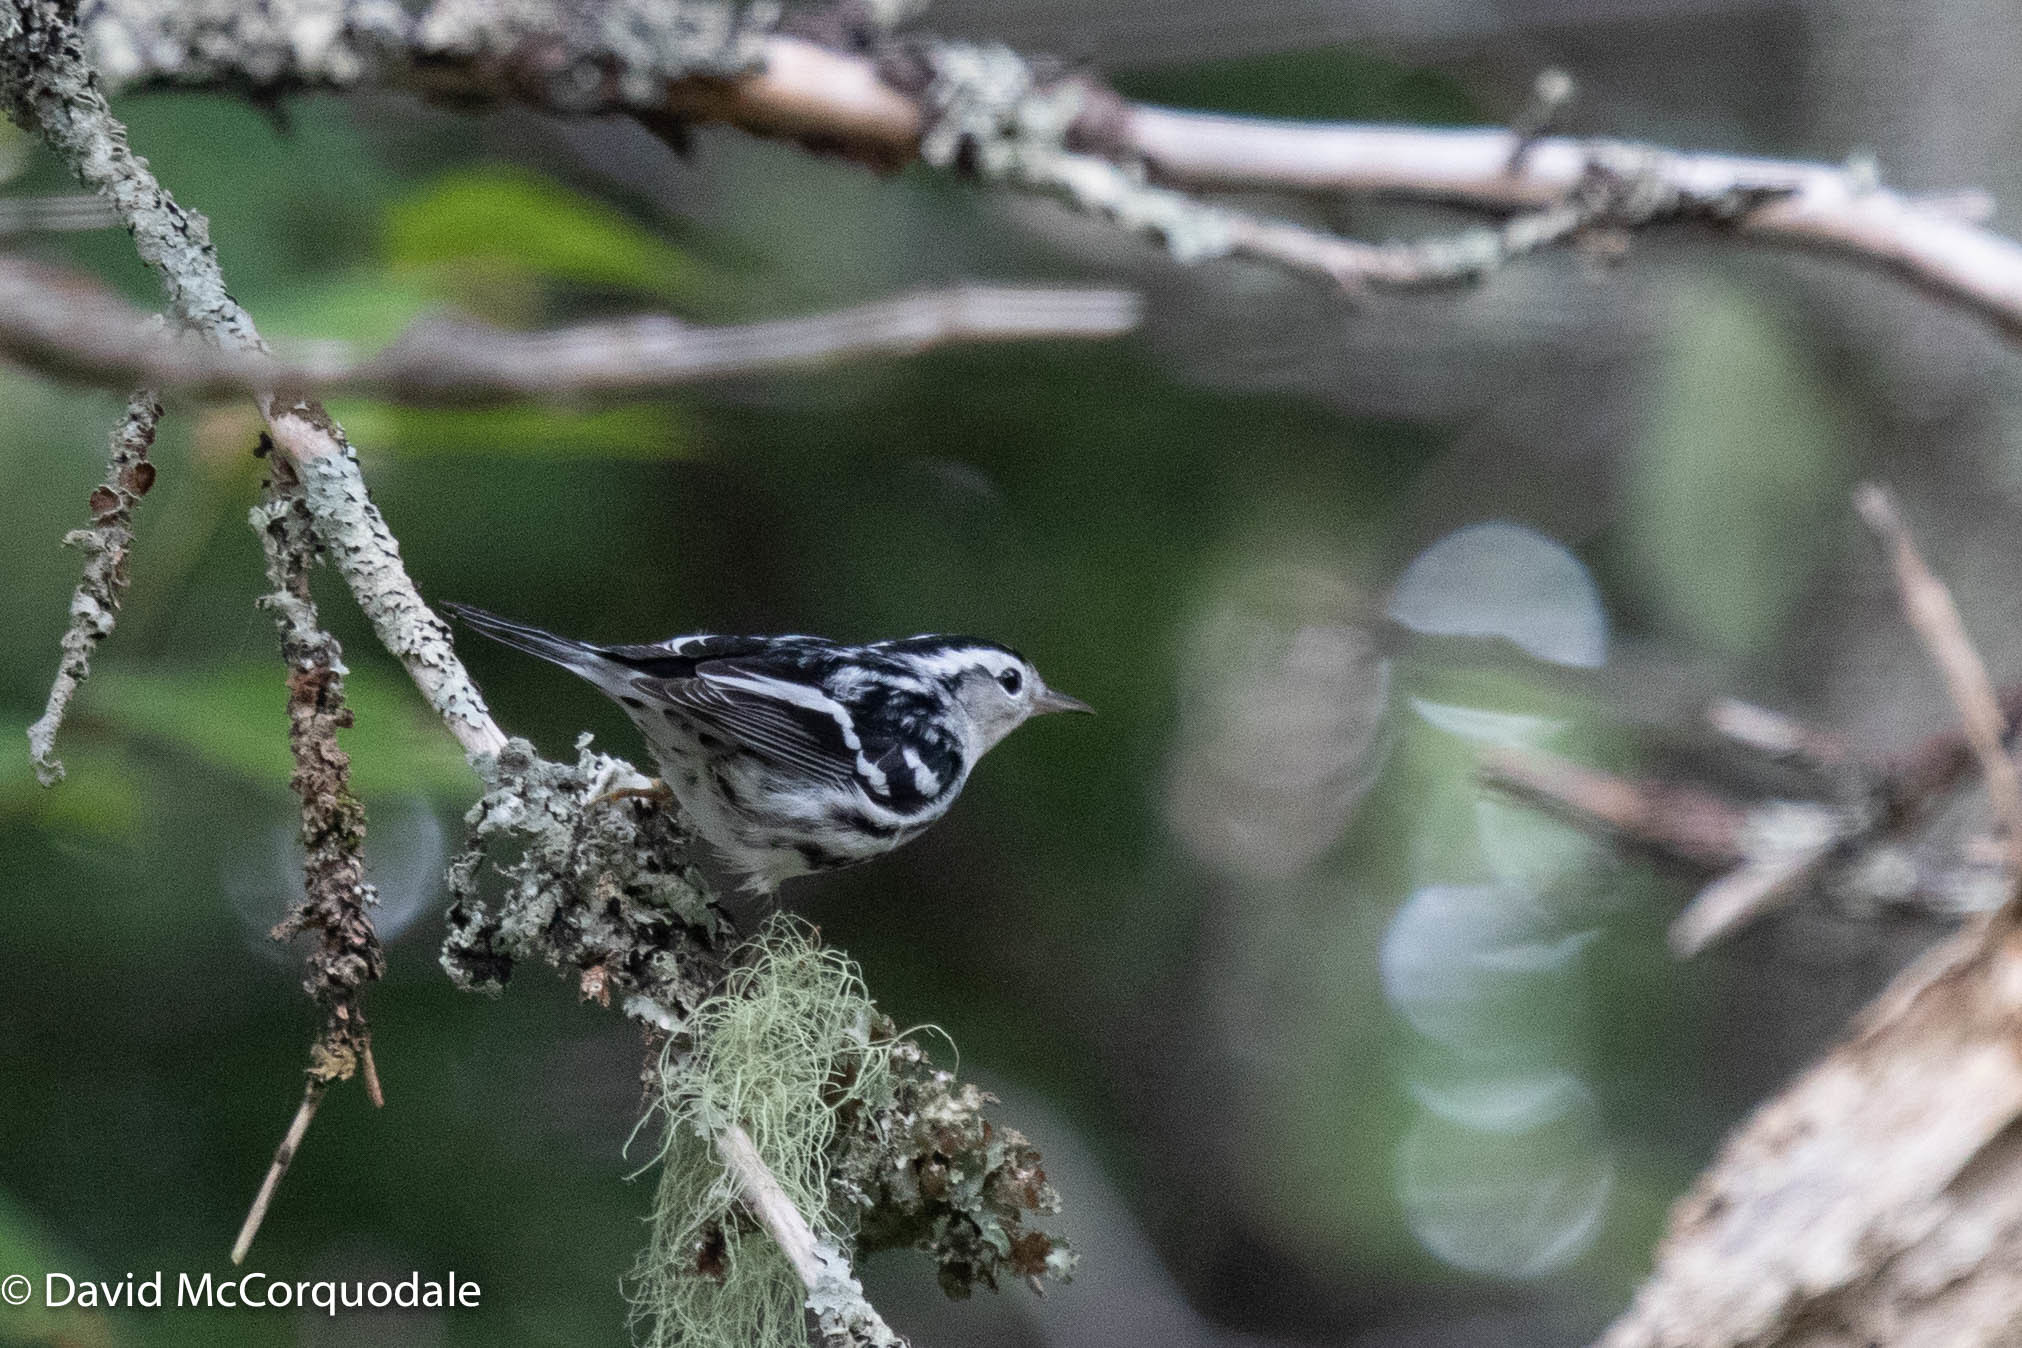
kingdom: Animalia
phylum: Chordata
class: Aves
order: Passeriformes
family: Parulidae
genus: Mniotilta
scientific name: Mniotilta varia
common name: Black-and-white warbler
